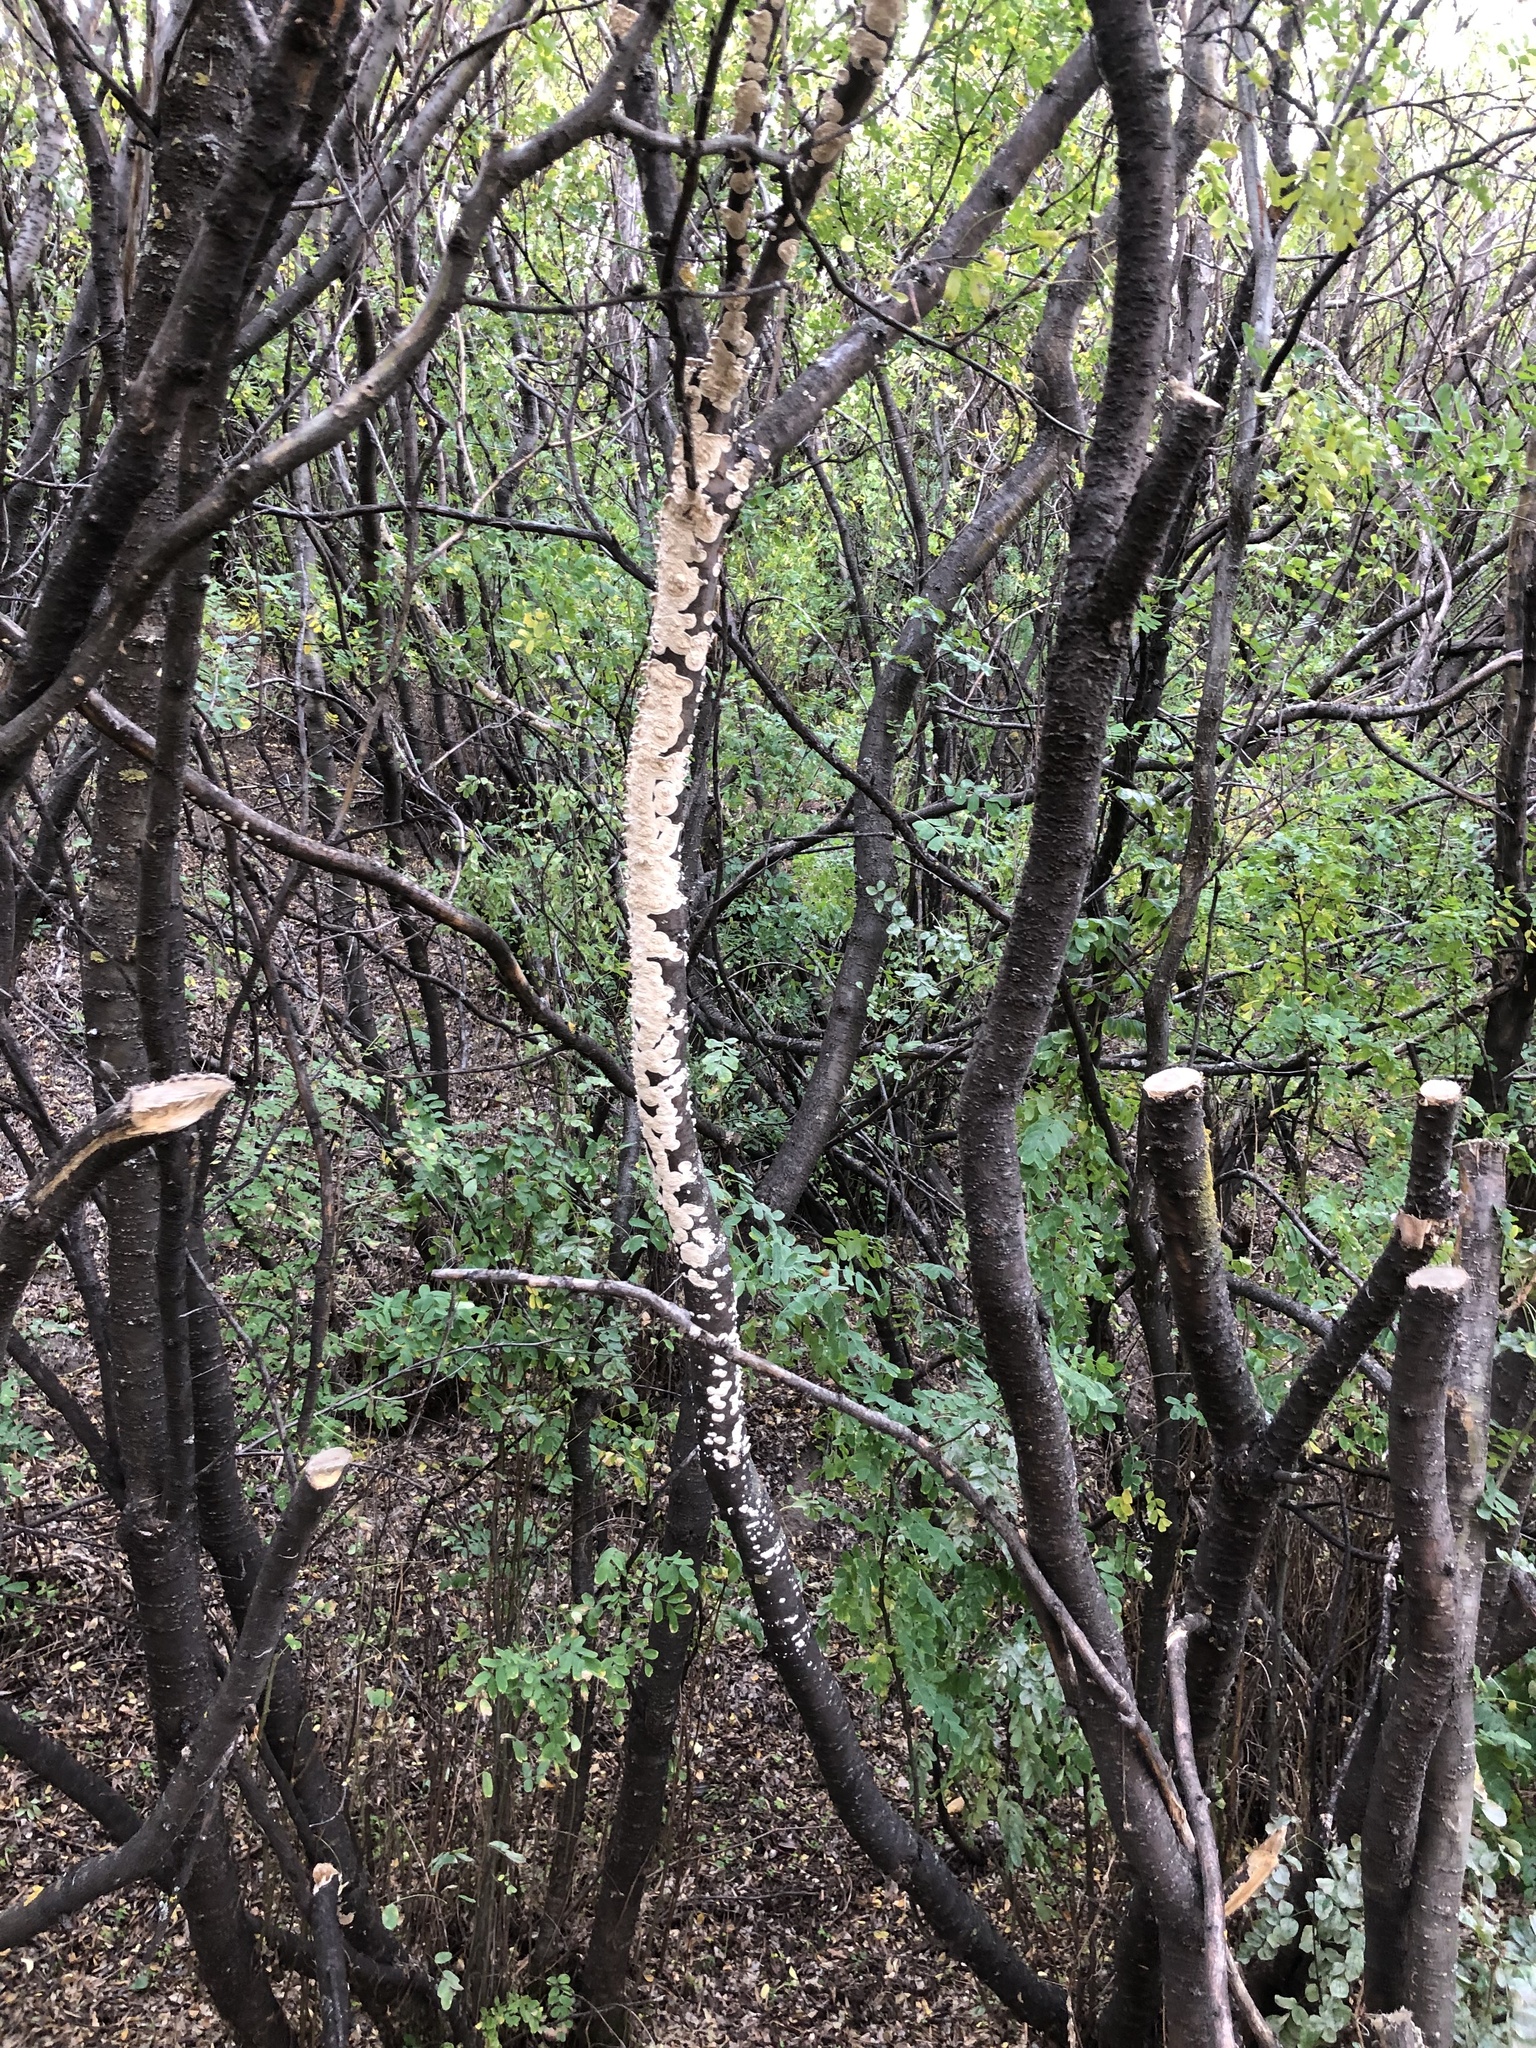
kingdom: Fungi
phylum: Basidiomycota
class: Agaricomycetes
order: Polyporales
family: Irpicaceae
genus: Irpex
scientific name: Irpex lacteus
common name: Milk-white toothed polypore
